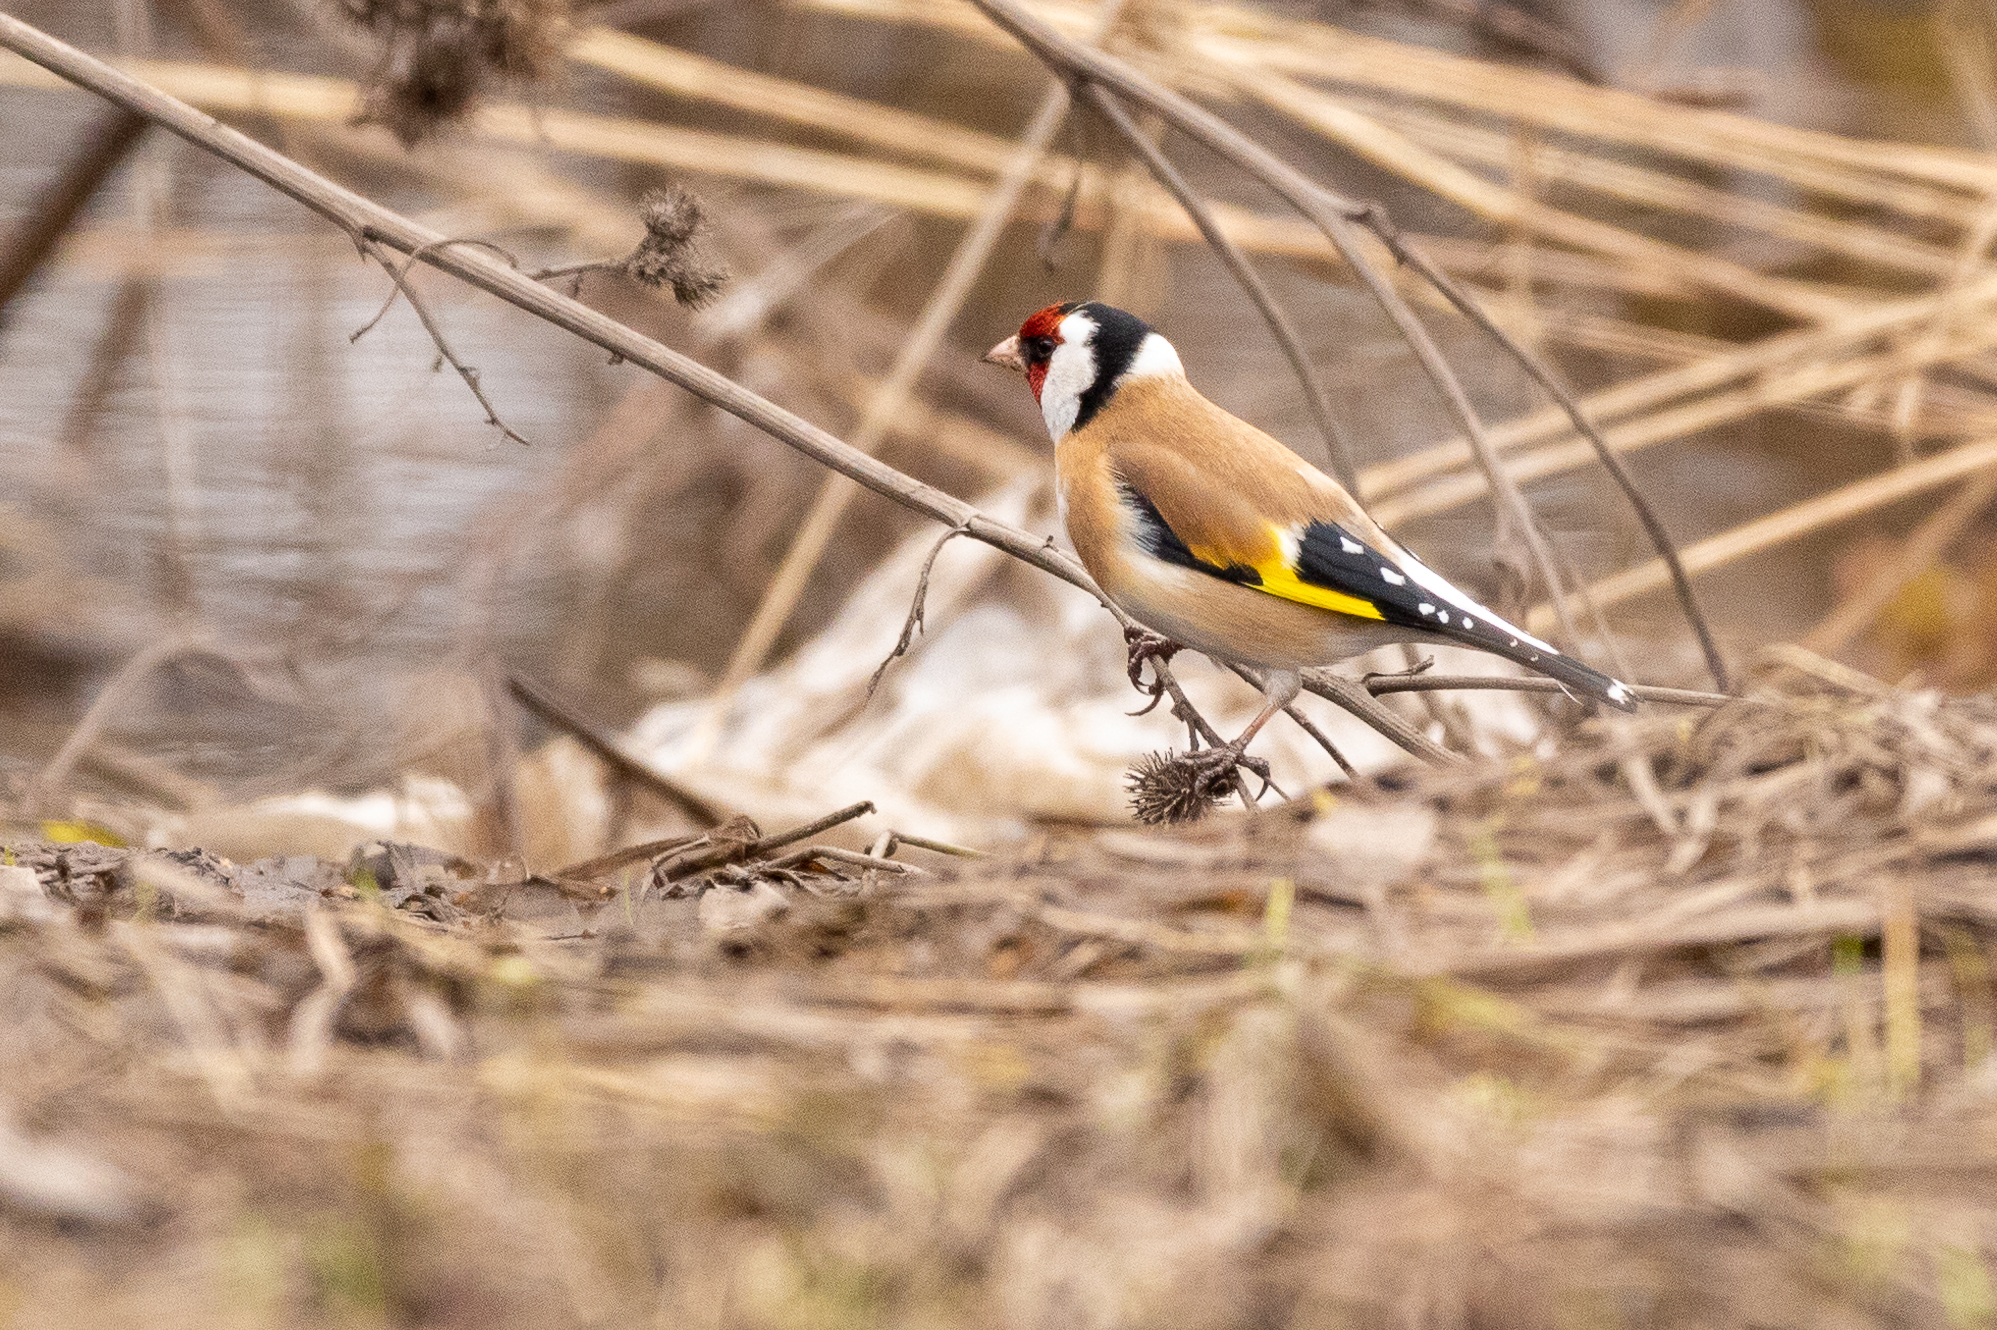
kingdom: Animalia
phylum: Chordata
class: Aves
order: Passeriformes
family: Fringillidae
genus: Carduelis
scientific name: Carduelis carduelis
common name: European goldfinch
